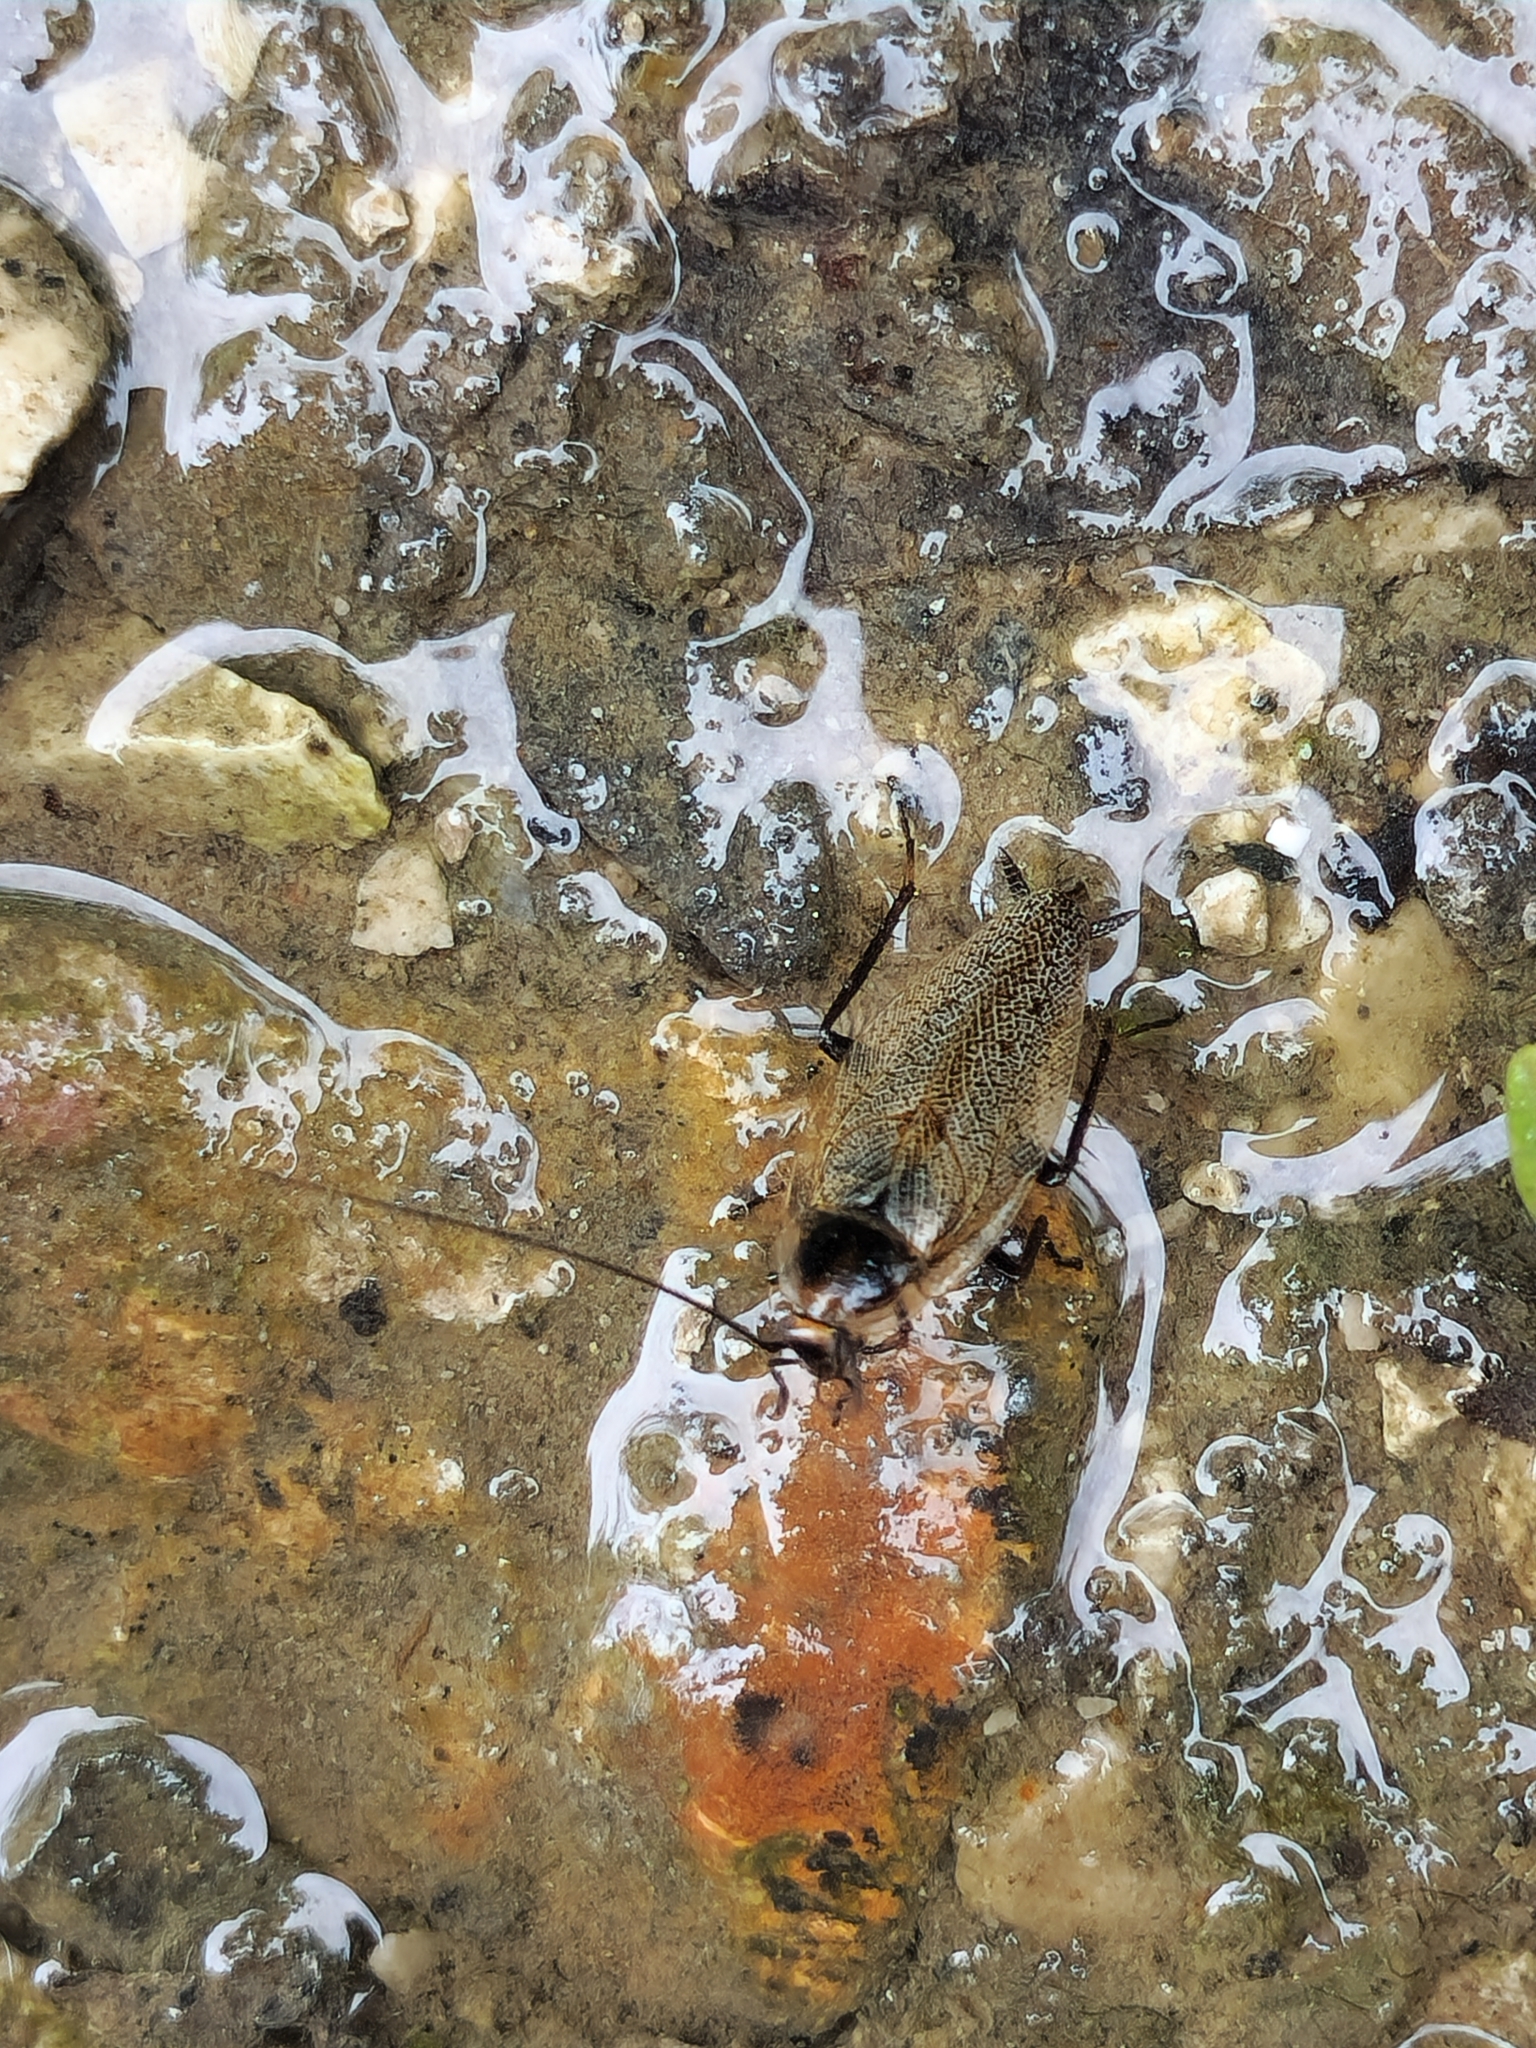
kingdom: Animalia
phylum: Arthropoda
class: Insecta
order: Blattodea
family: Ectobiidae
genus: Ectobius
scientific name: Ectobius erythronotus
